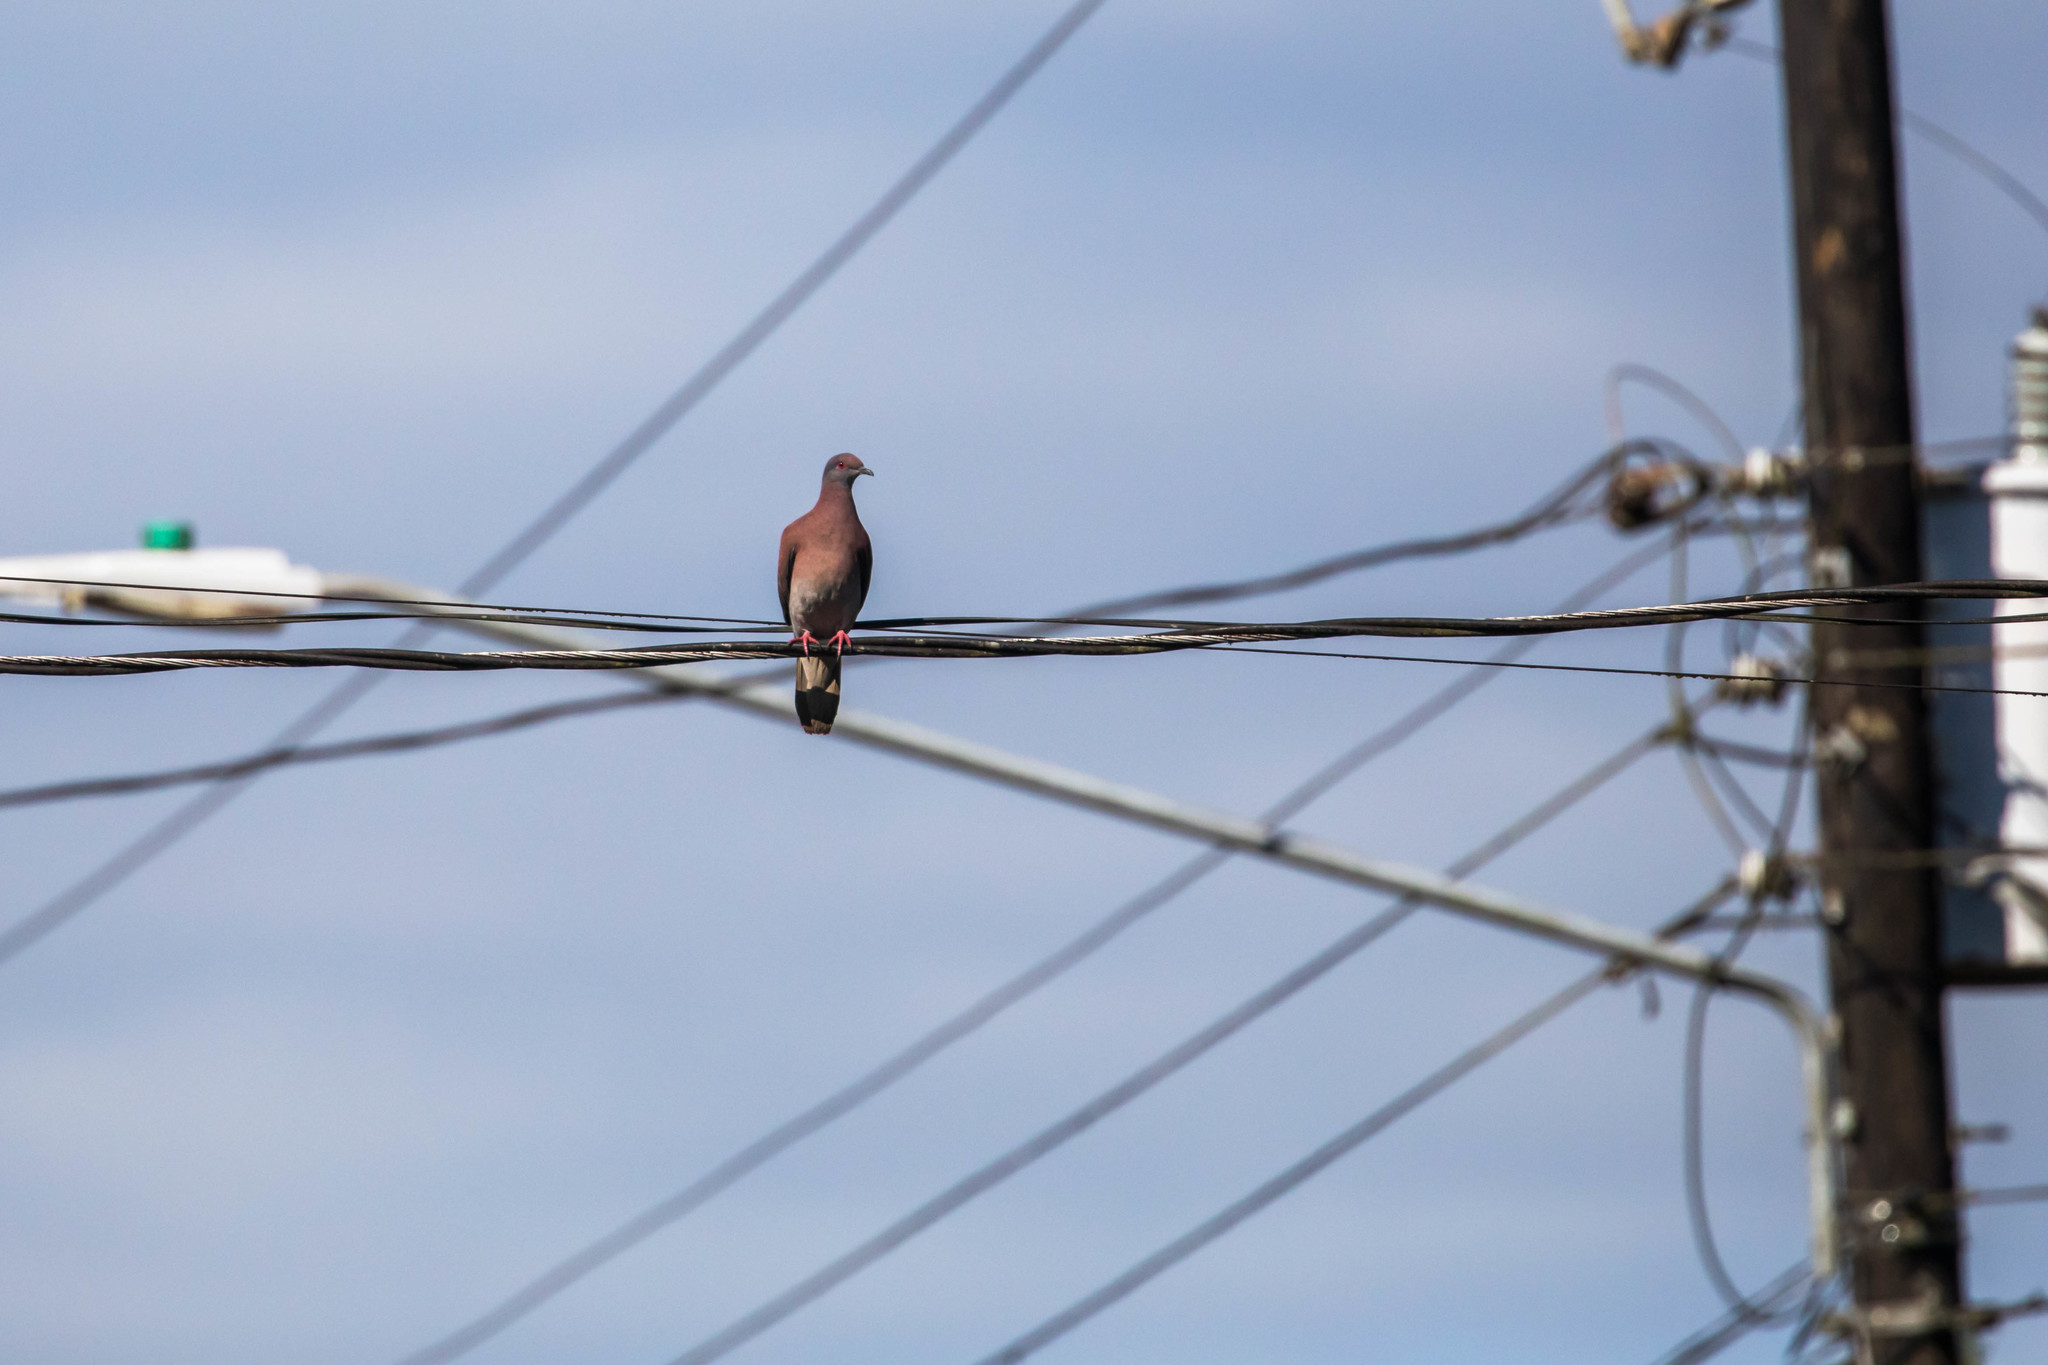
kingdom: Animalia
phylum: Chordata
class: Aves
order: Columbiformes
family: Columbidae
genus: Patagioenas
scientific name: Patagioenas cayennensis
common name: Pale-vented pigeon
